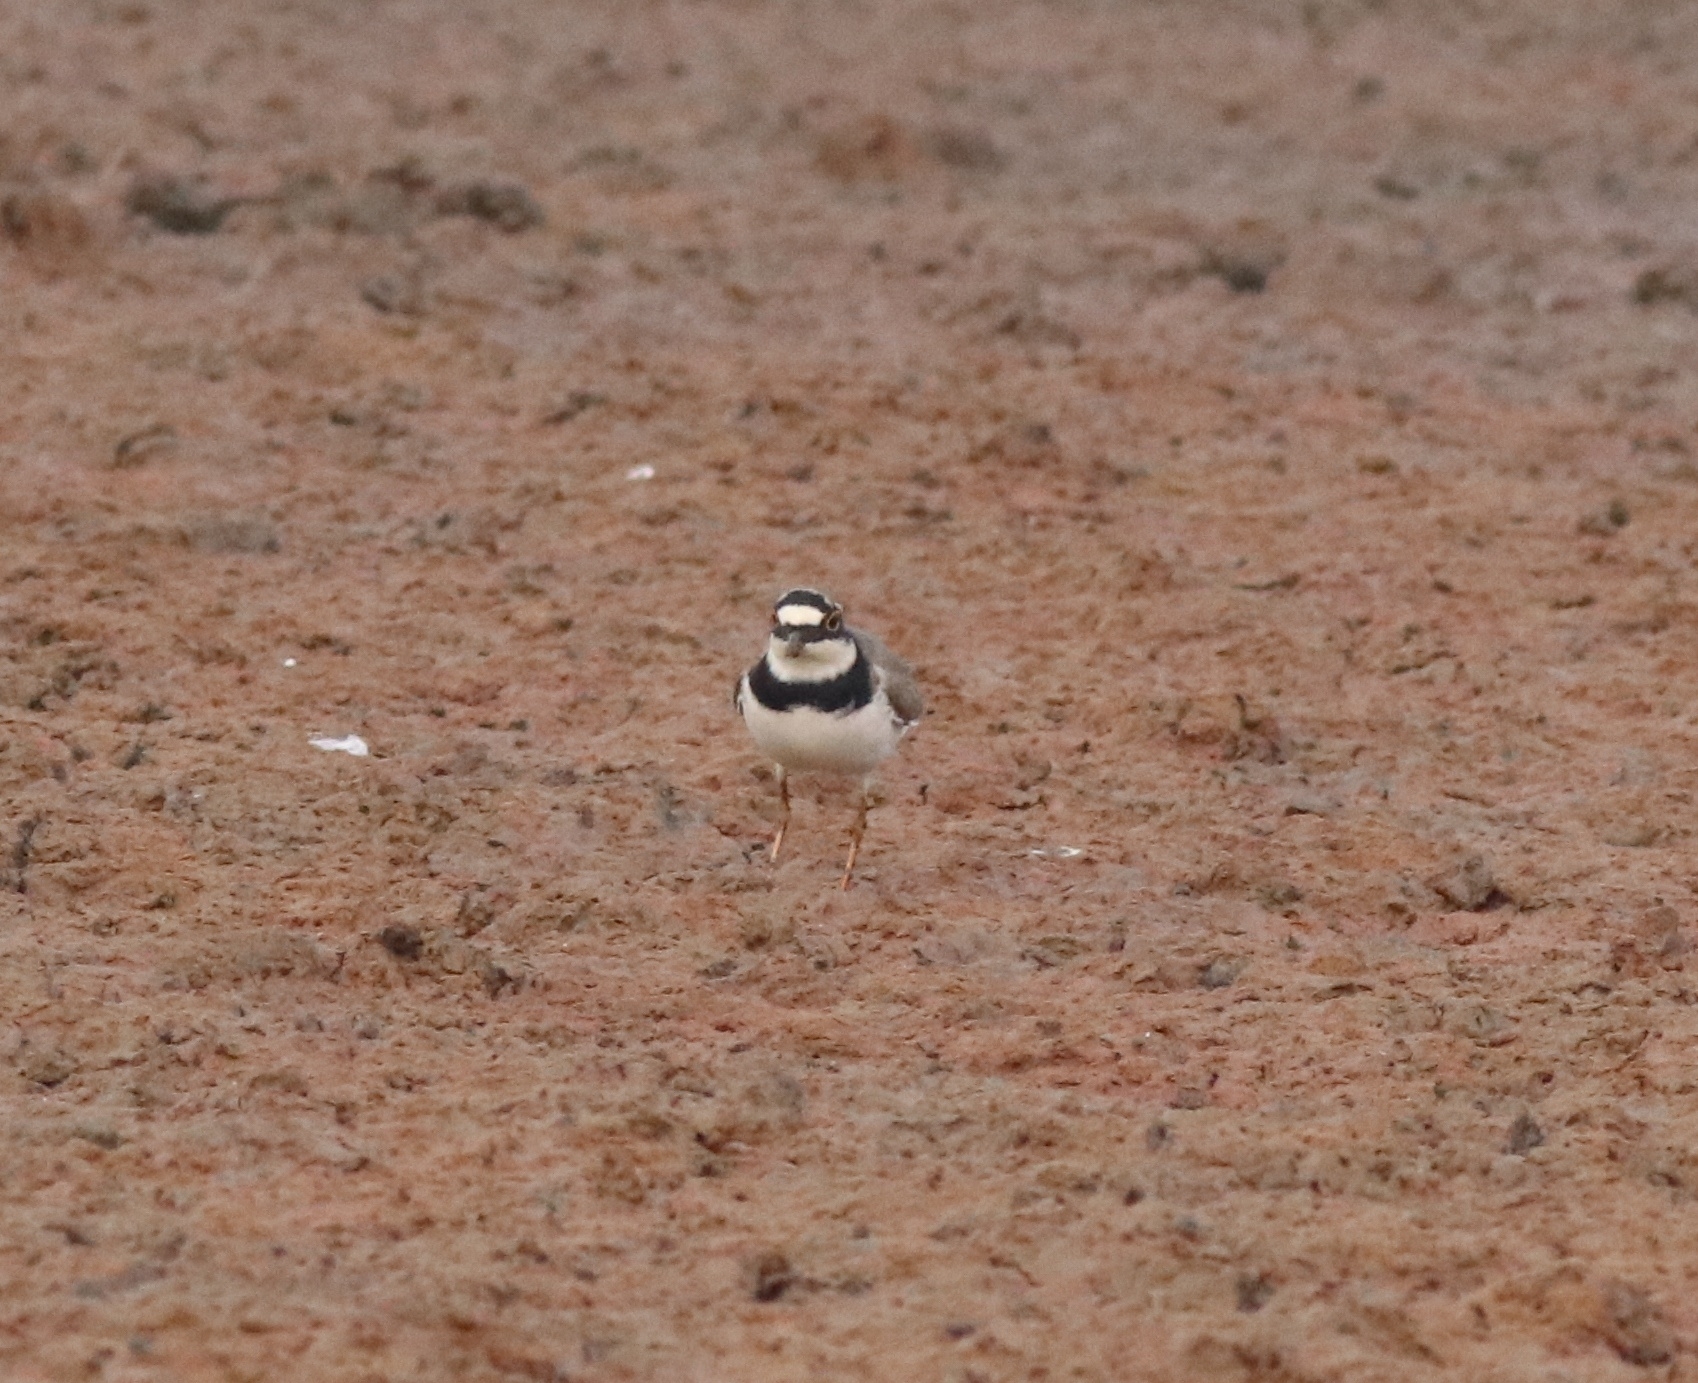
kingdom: Animalia
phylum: Chordata
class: Aves
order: Charadriiformes
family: Charadriidae
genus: Charadrius
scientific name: Charadrius dubius
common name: Little ringed plover
